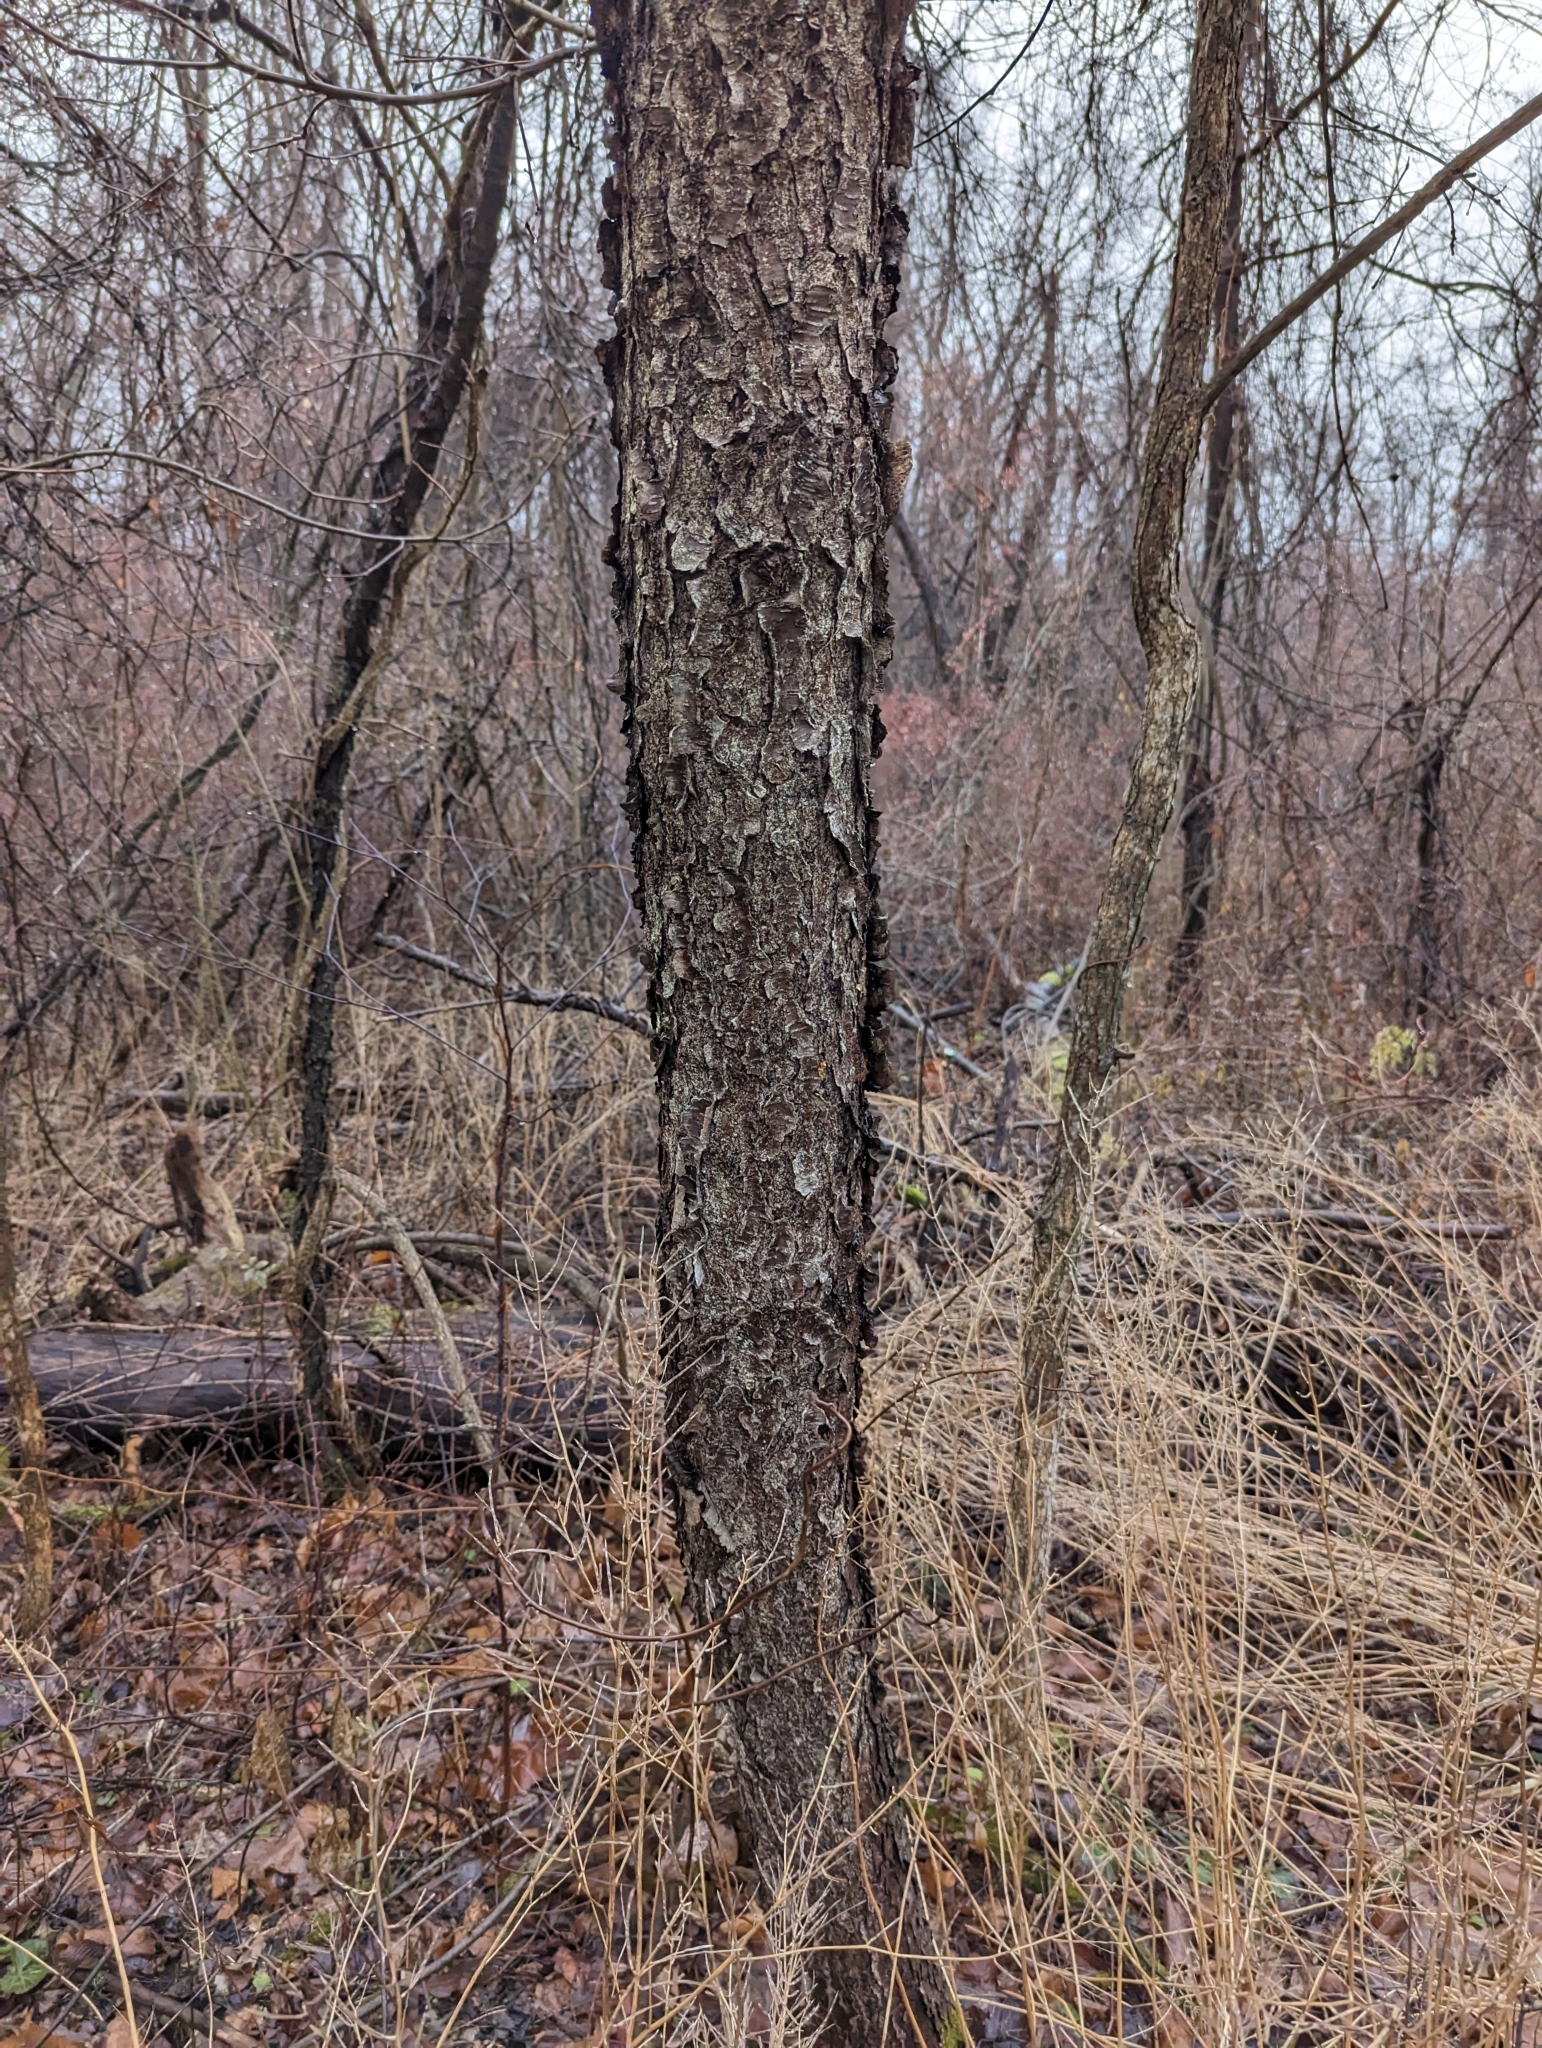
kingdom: Plantae
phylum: Tracheophyta
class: Magnoliopsida
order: Rosales
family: Rosaceae
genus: Prunus
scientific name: Prunus serotina
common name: Black cherry
